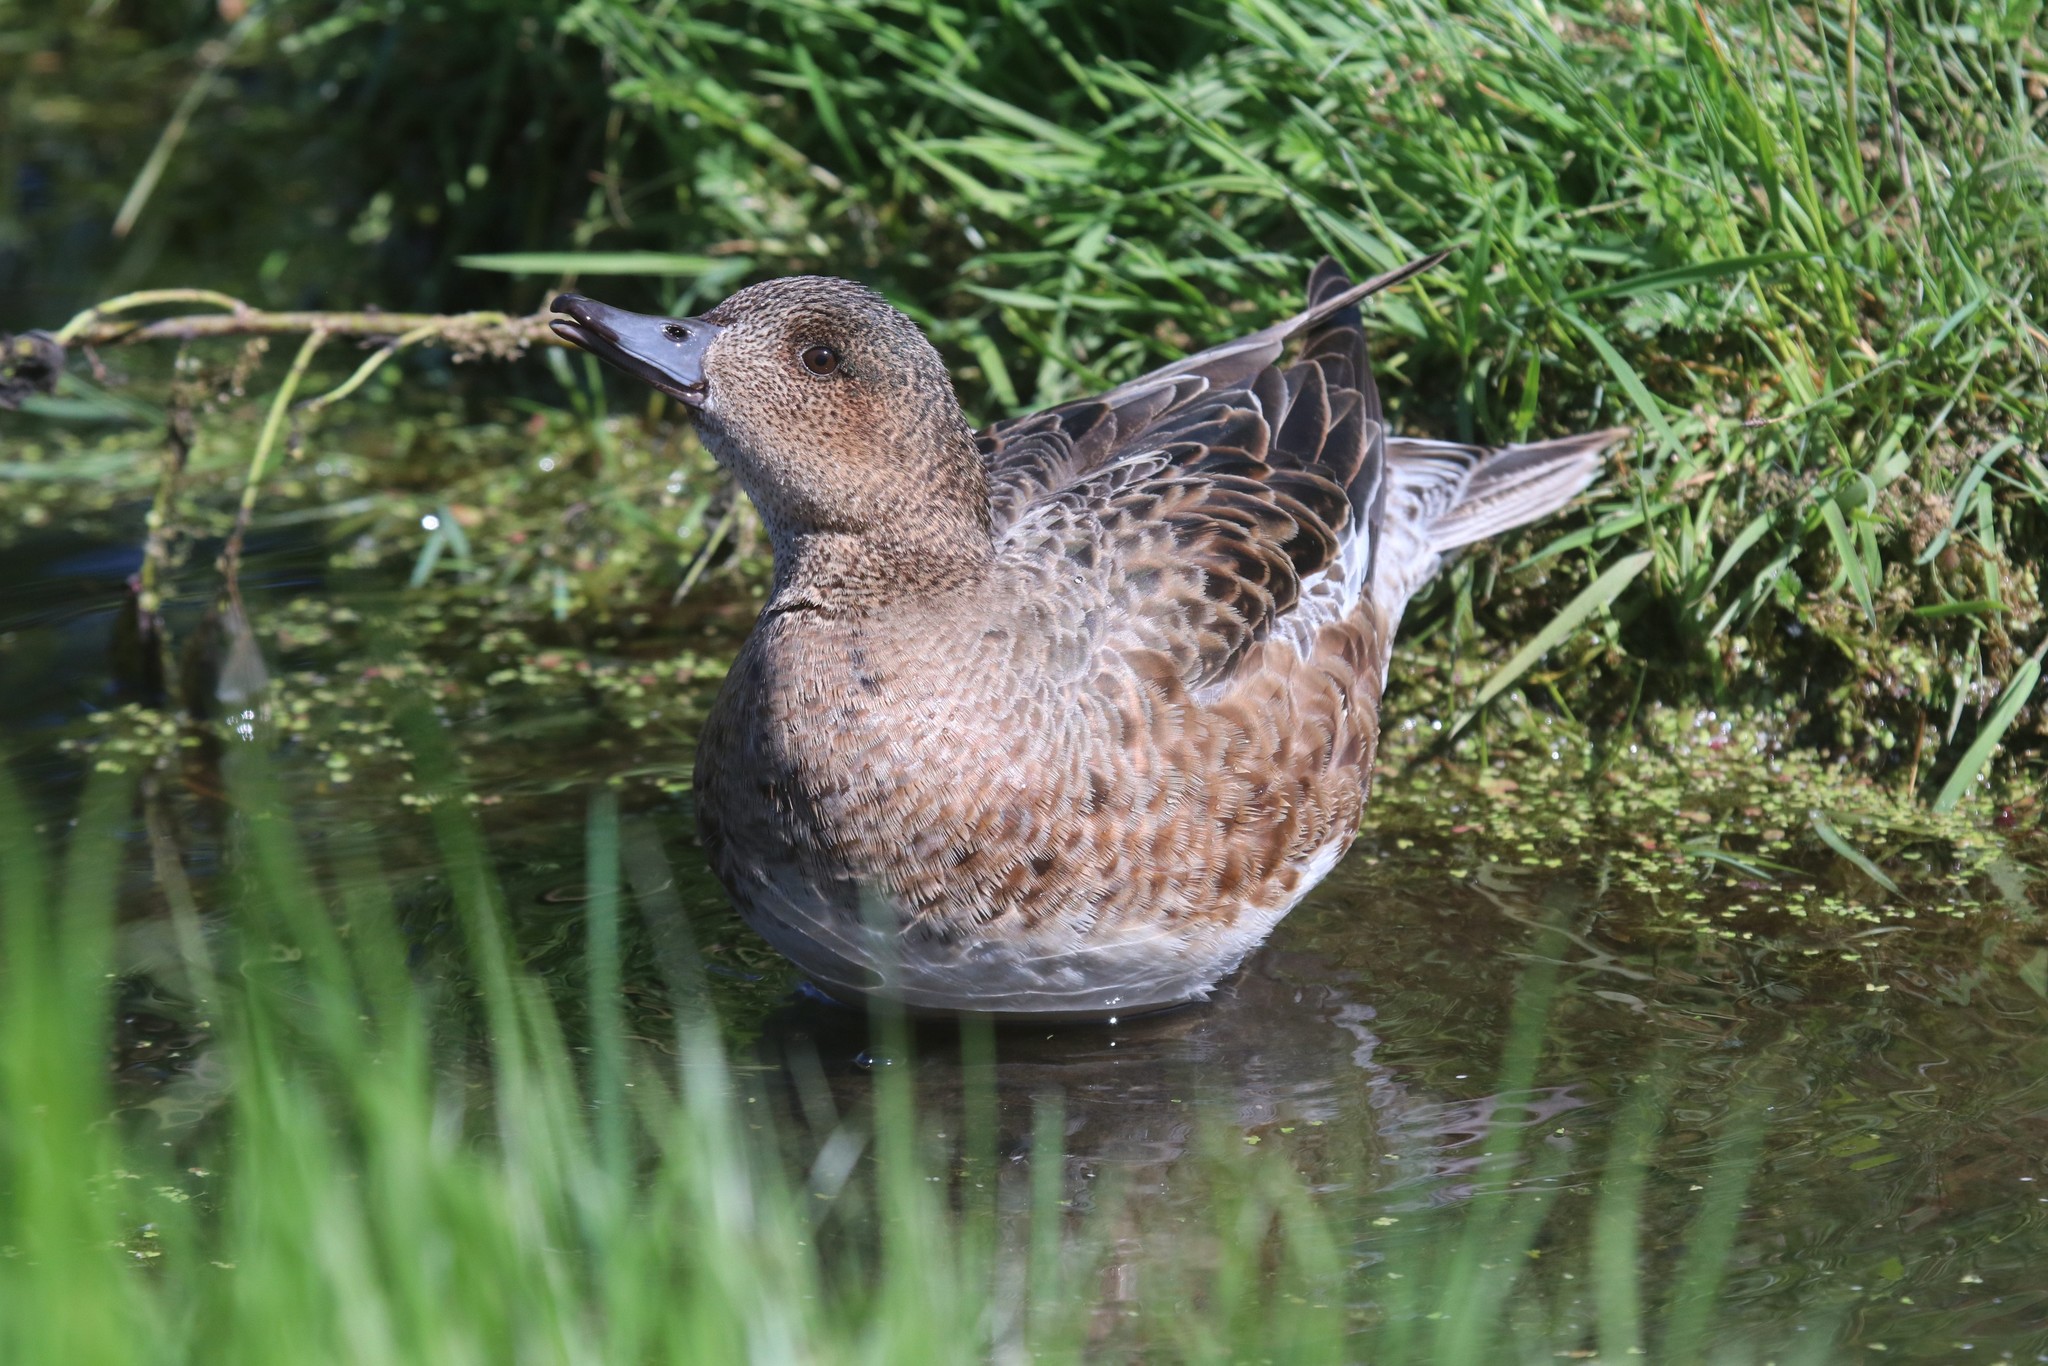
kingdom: Animalia
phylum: Chordata
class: Aves
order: Anseriformes
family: Anatidae
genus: Mareca
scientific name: Mareca penelope
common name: Eurasian wigeon
